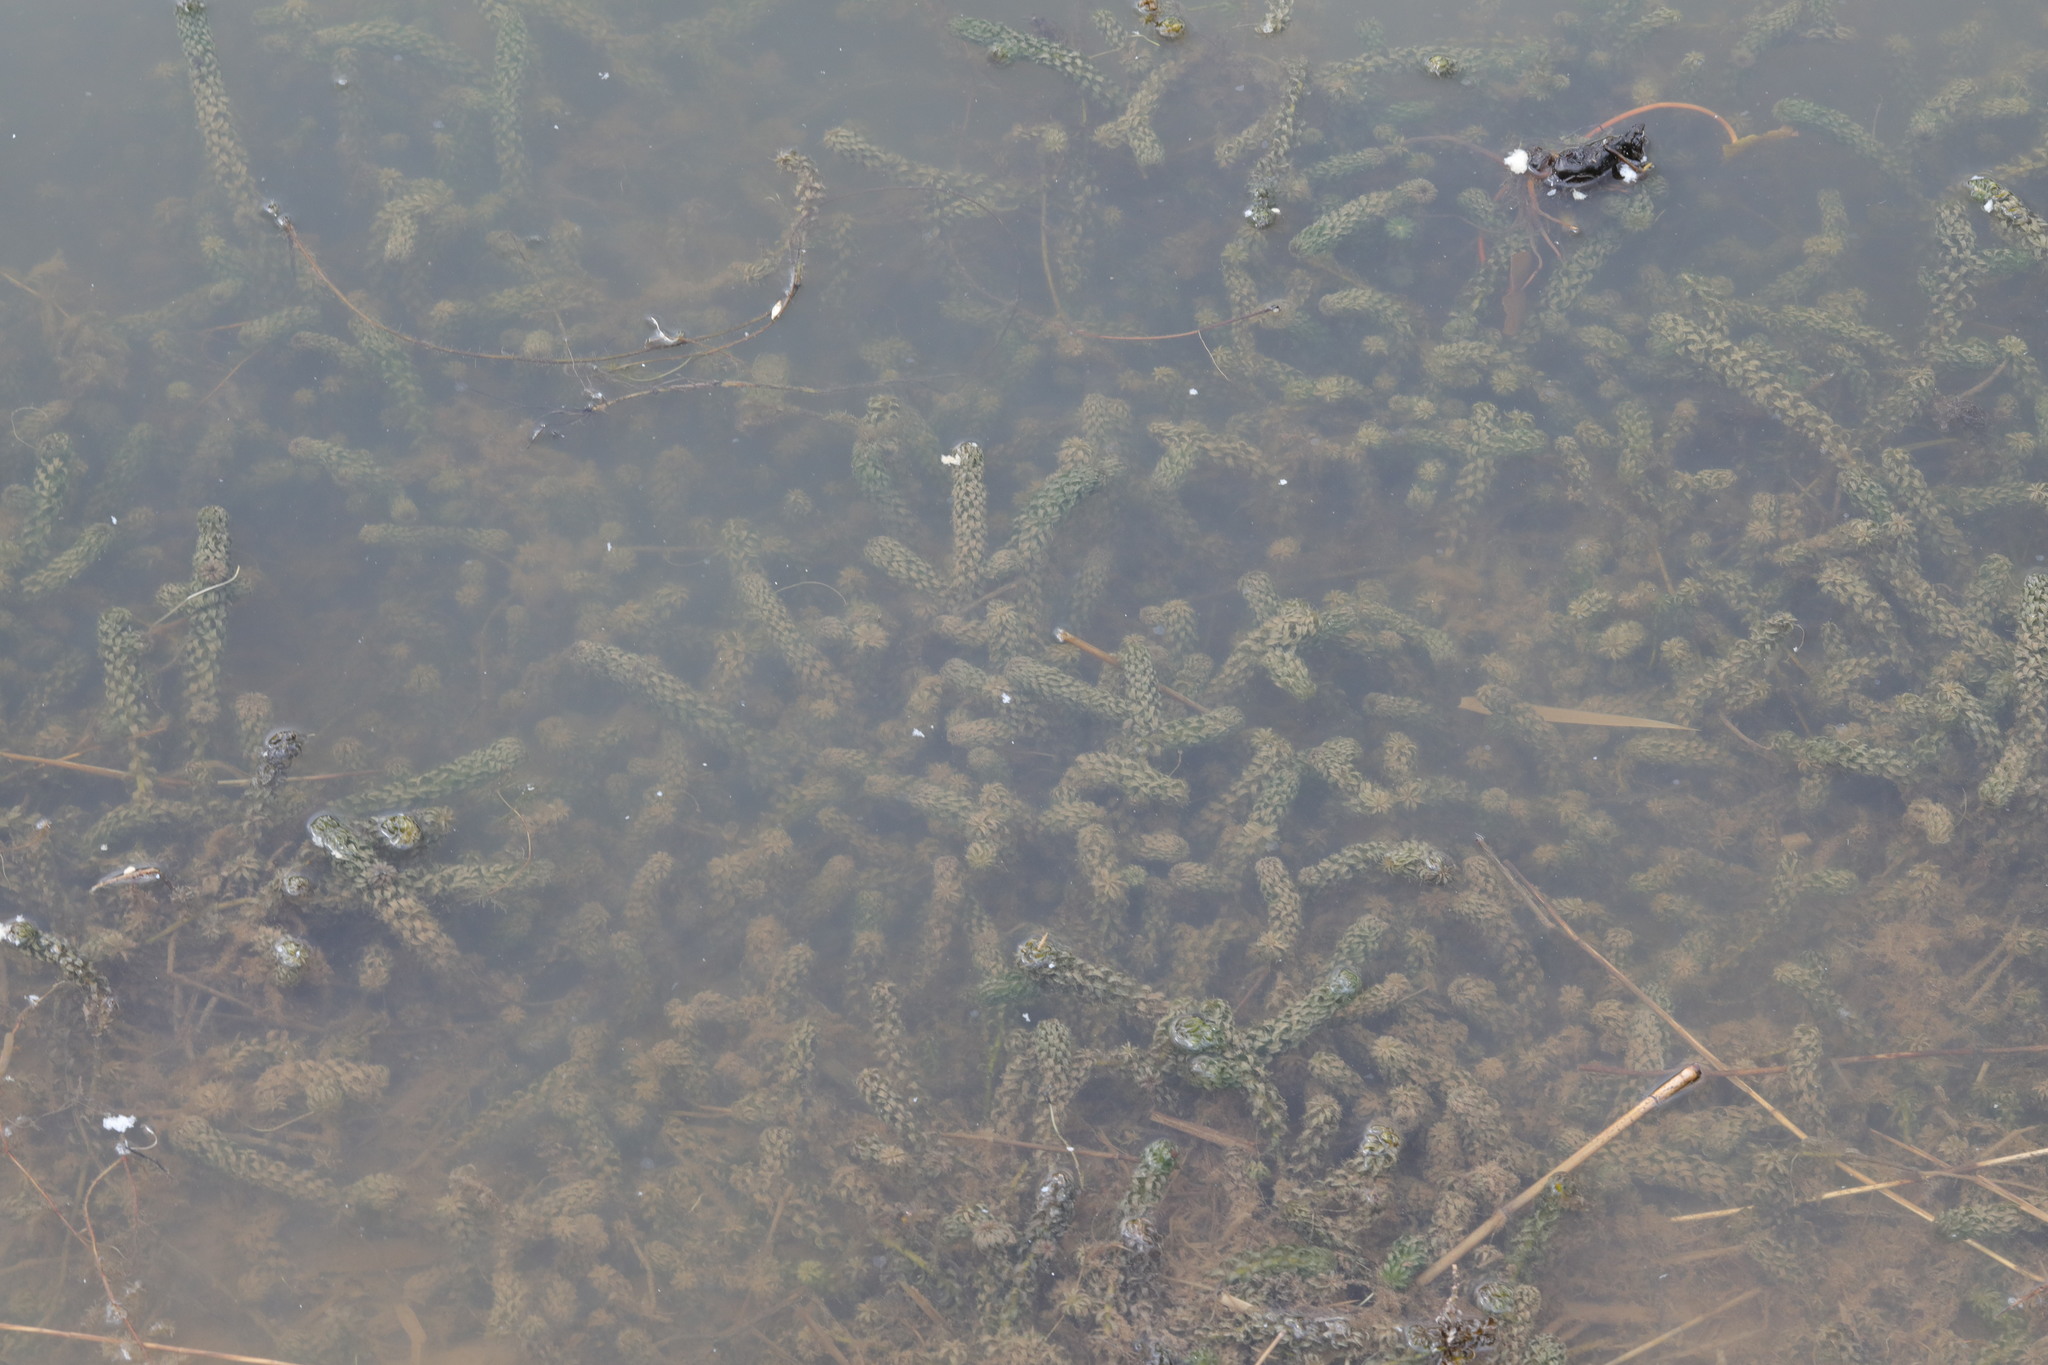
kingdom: Plantae
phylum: Tracheophyta
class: Liliopsida
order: Alismatales
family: Hydrocharitaceae
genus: Lagarosiphon
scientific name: Lagarosiphon major
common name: Curly waterweed
